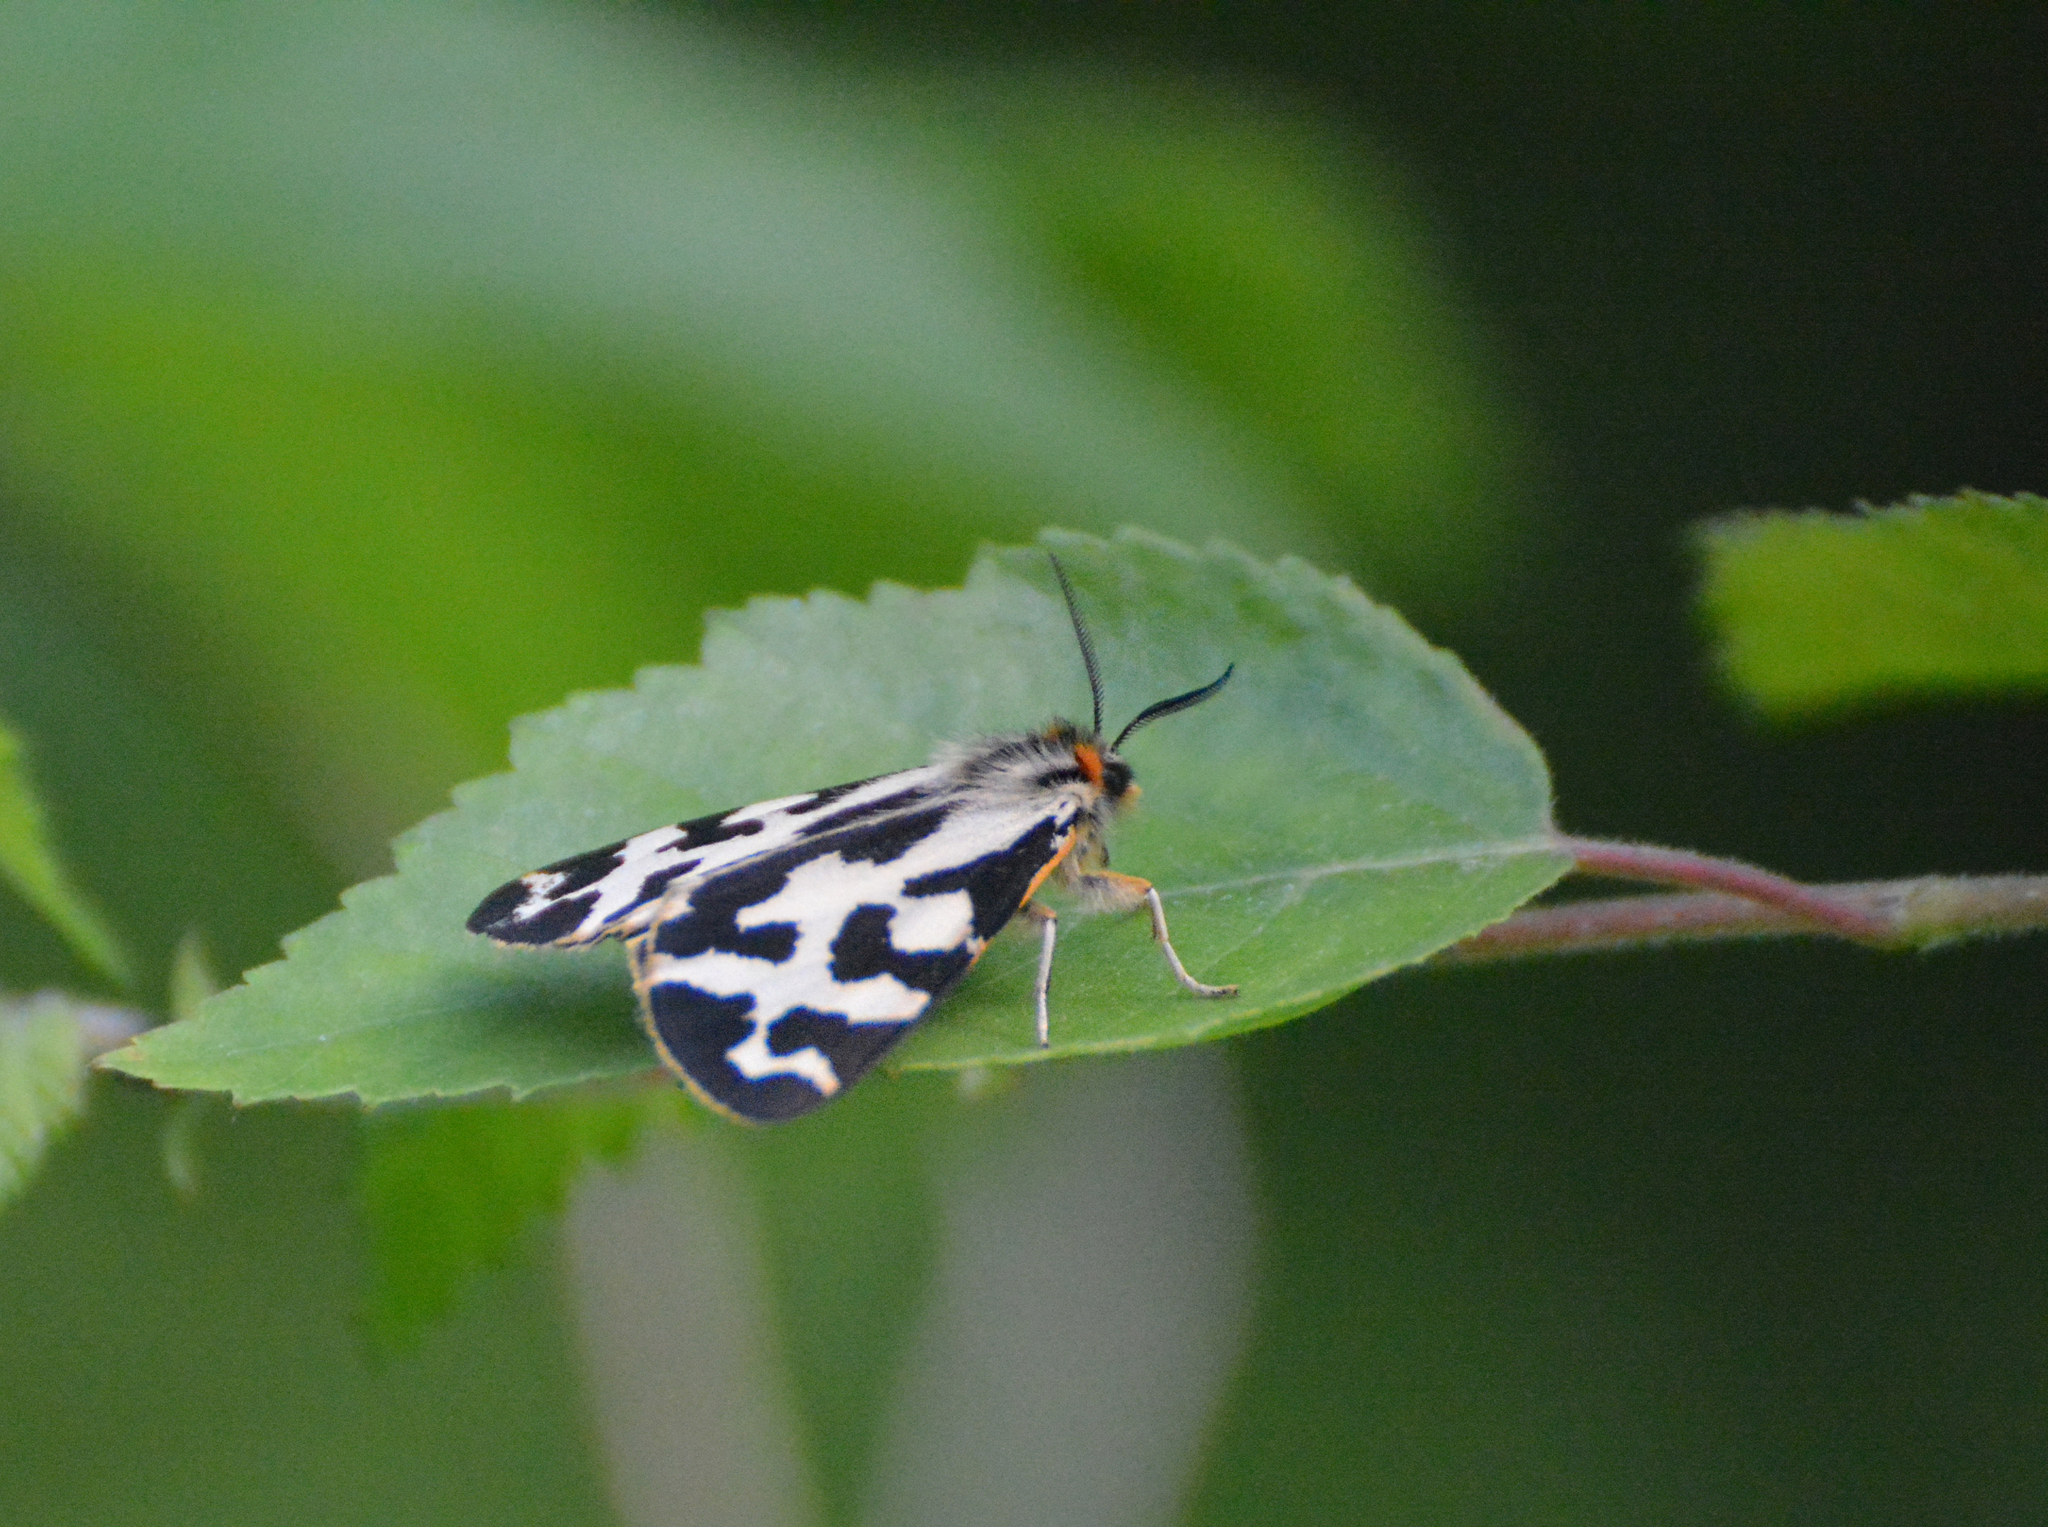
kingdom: Animalia
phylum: Arthropoda
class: Insecta
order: Lepidoptera
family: Erebidae
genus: Parasemia
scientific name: Parasemia plantaginis
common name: Wood tiger
